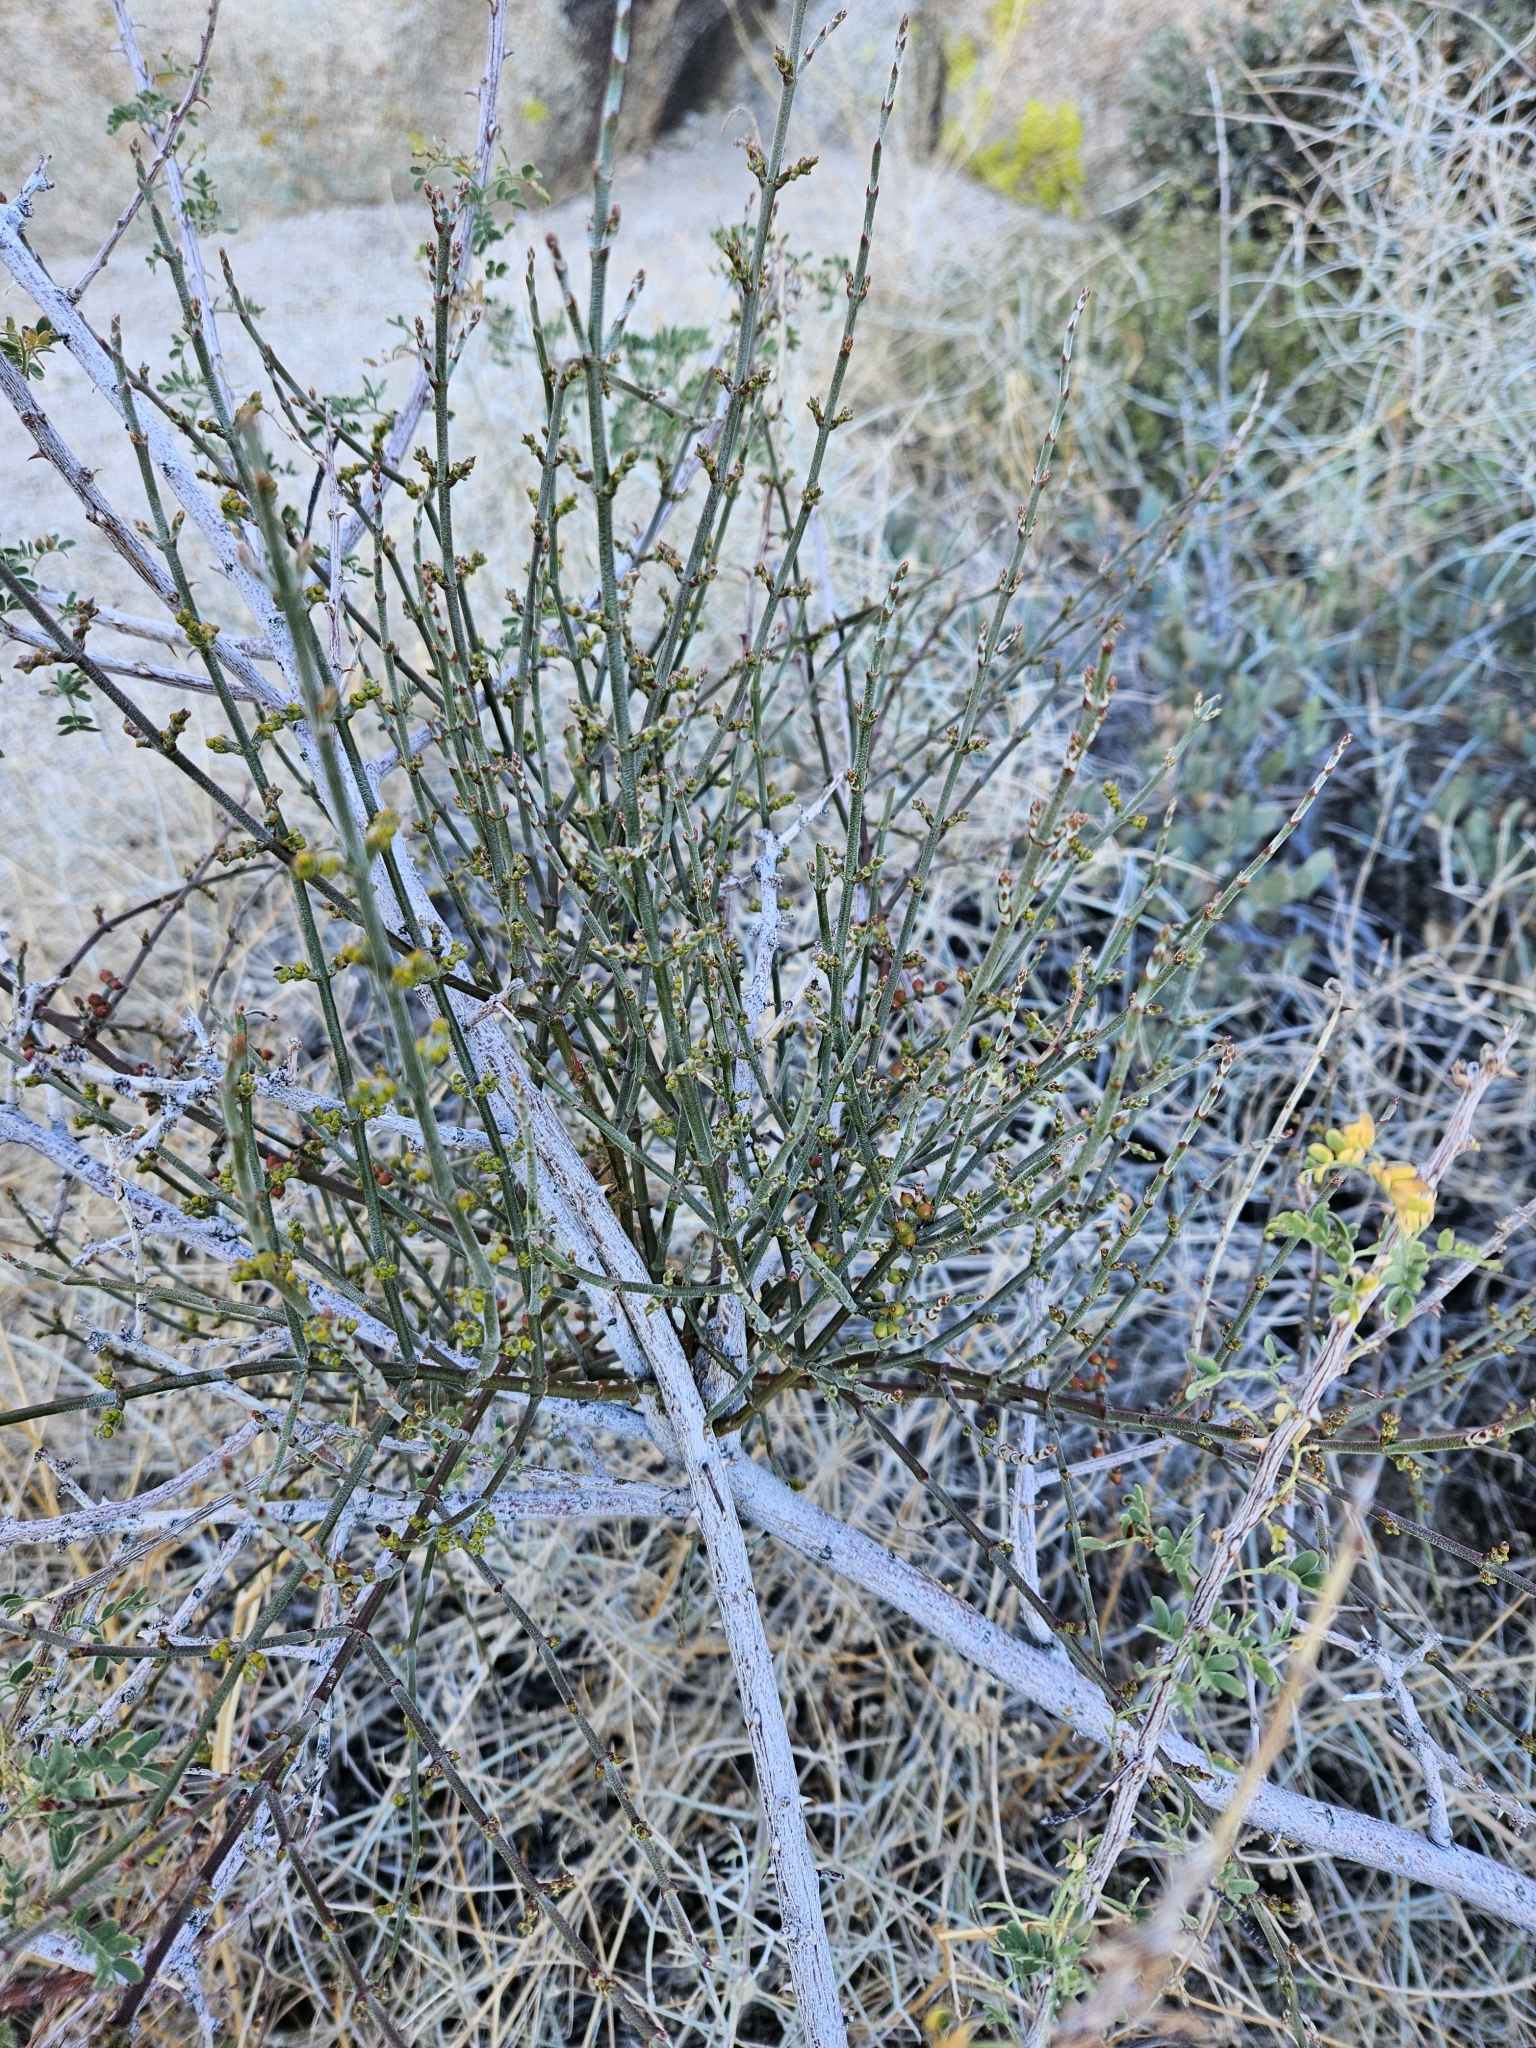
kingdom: Plantae
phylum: Tracheophyta
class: Magnoliopsida
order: Santalales
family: Viscaceae
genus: Phoradendron
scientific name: Phoradendron californicum
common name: Acacia mistletoe
